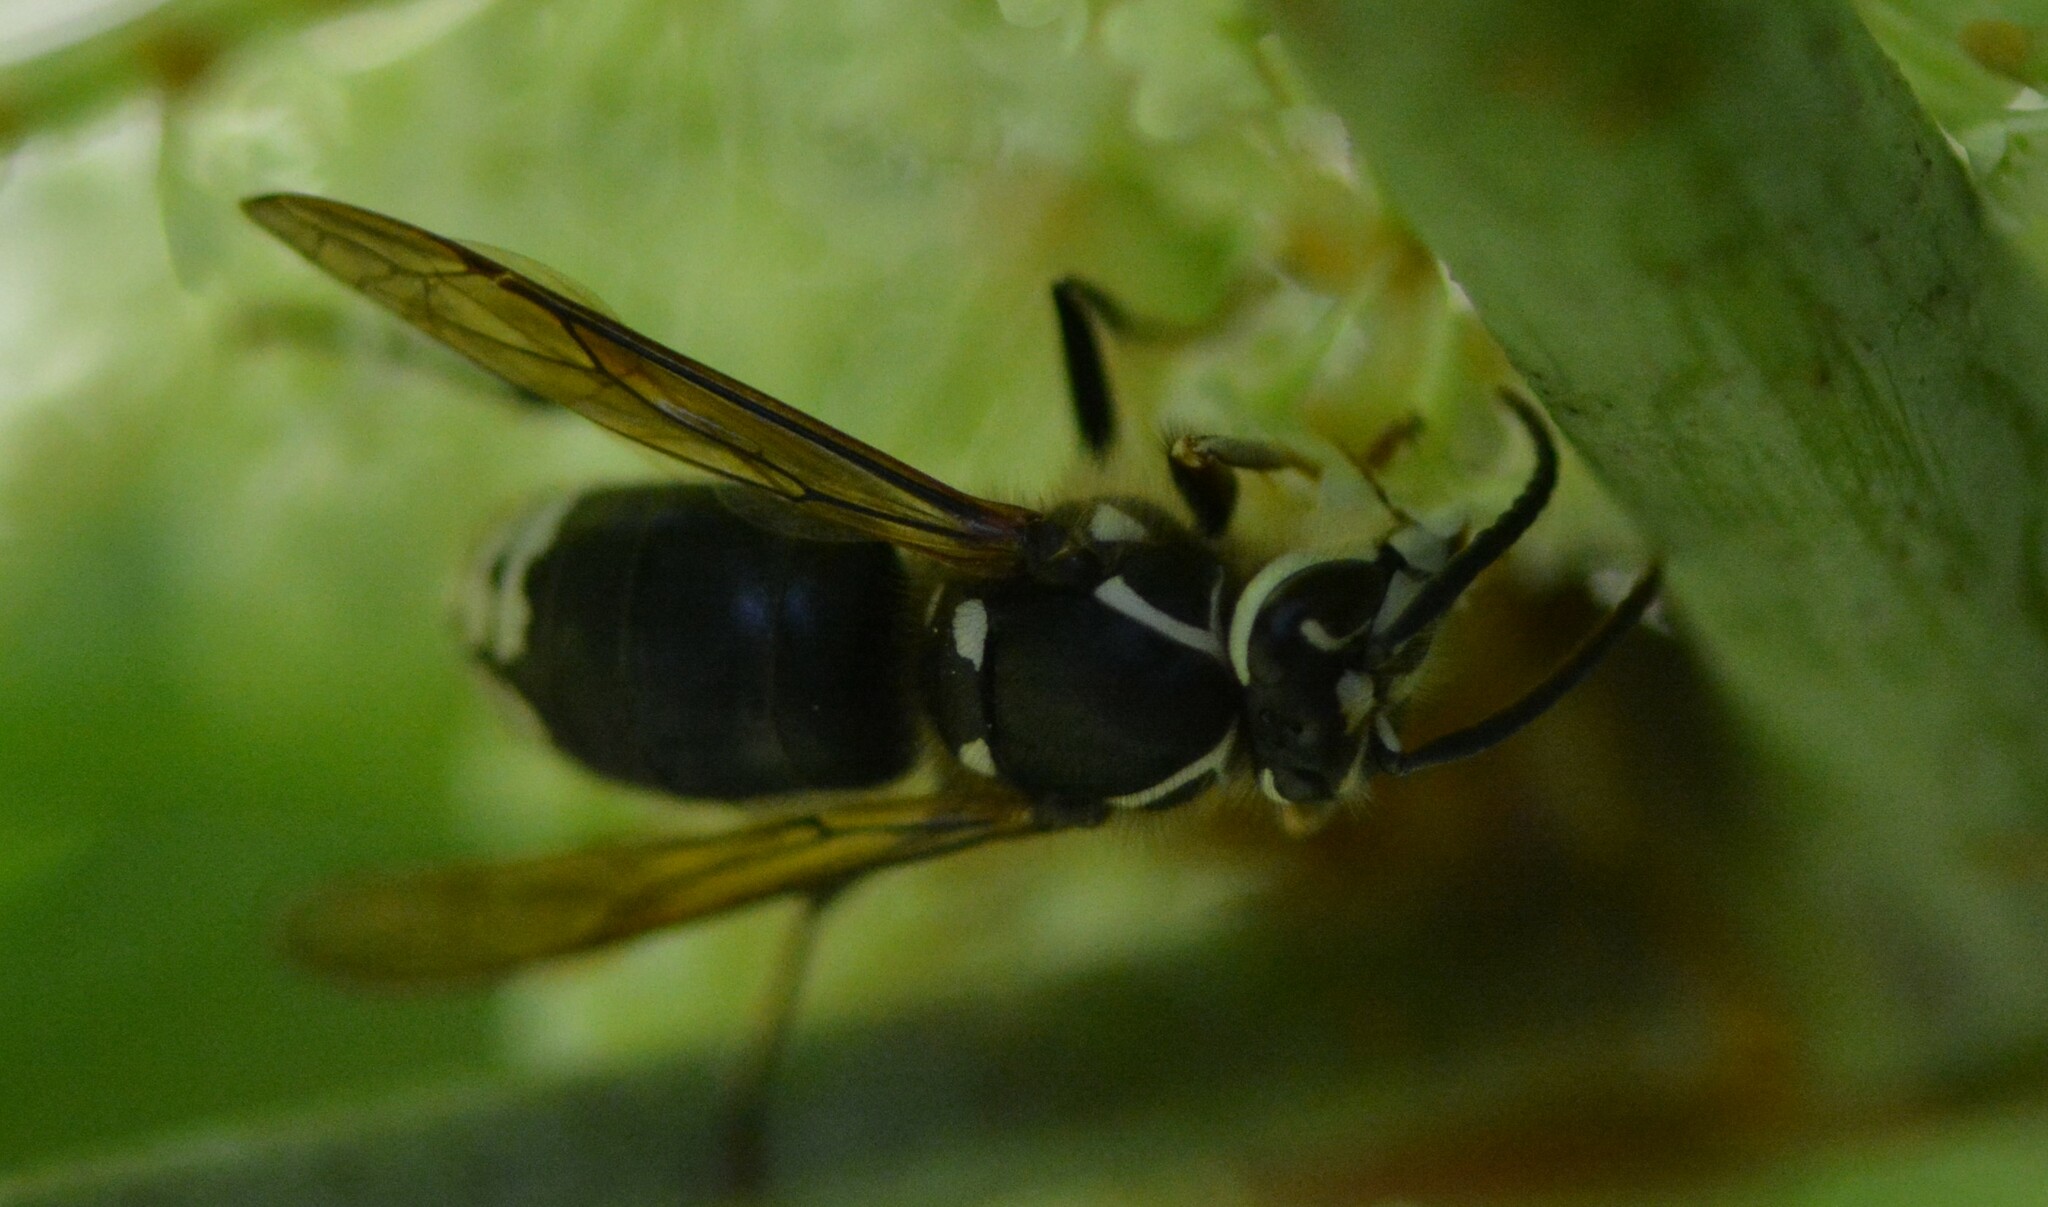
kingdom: Animalia
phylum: Arthropoda
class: Insecta
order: Hymenoptera
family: Vespidae
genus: Dolichovespula
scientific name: Dolichovespula maculata
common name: Bald-faced hornet
